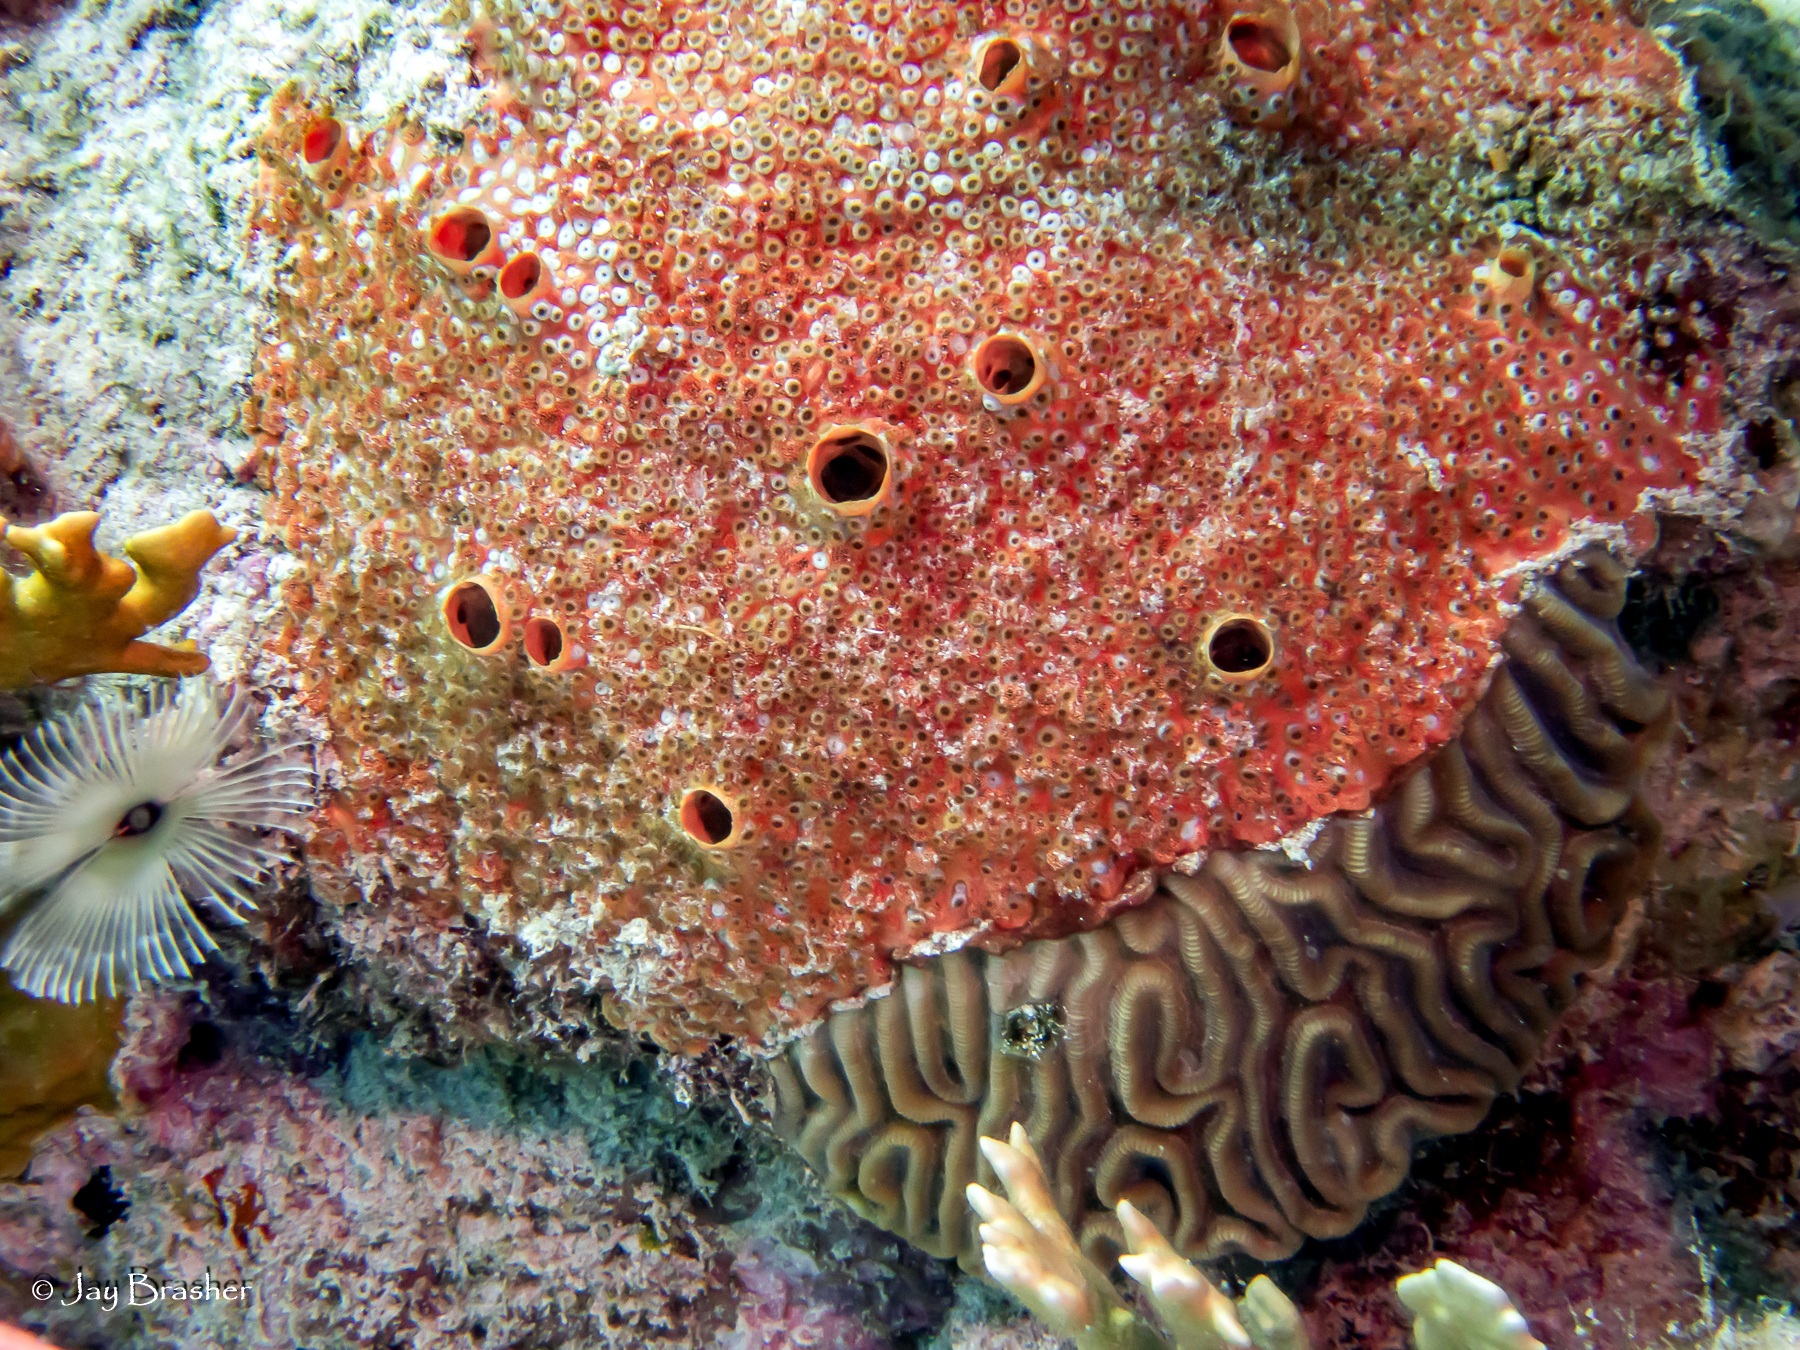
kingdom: Animalia
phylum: Porifera
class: Demospongiae
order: Clionaida
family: Clionaidae
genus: Cliothosa
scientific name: Cliothosa delitrix
